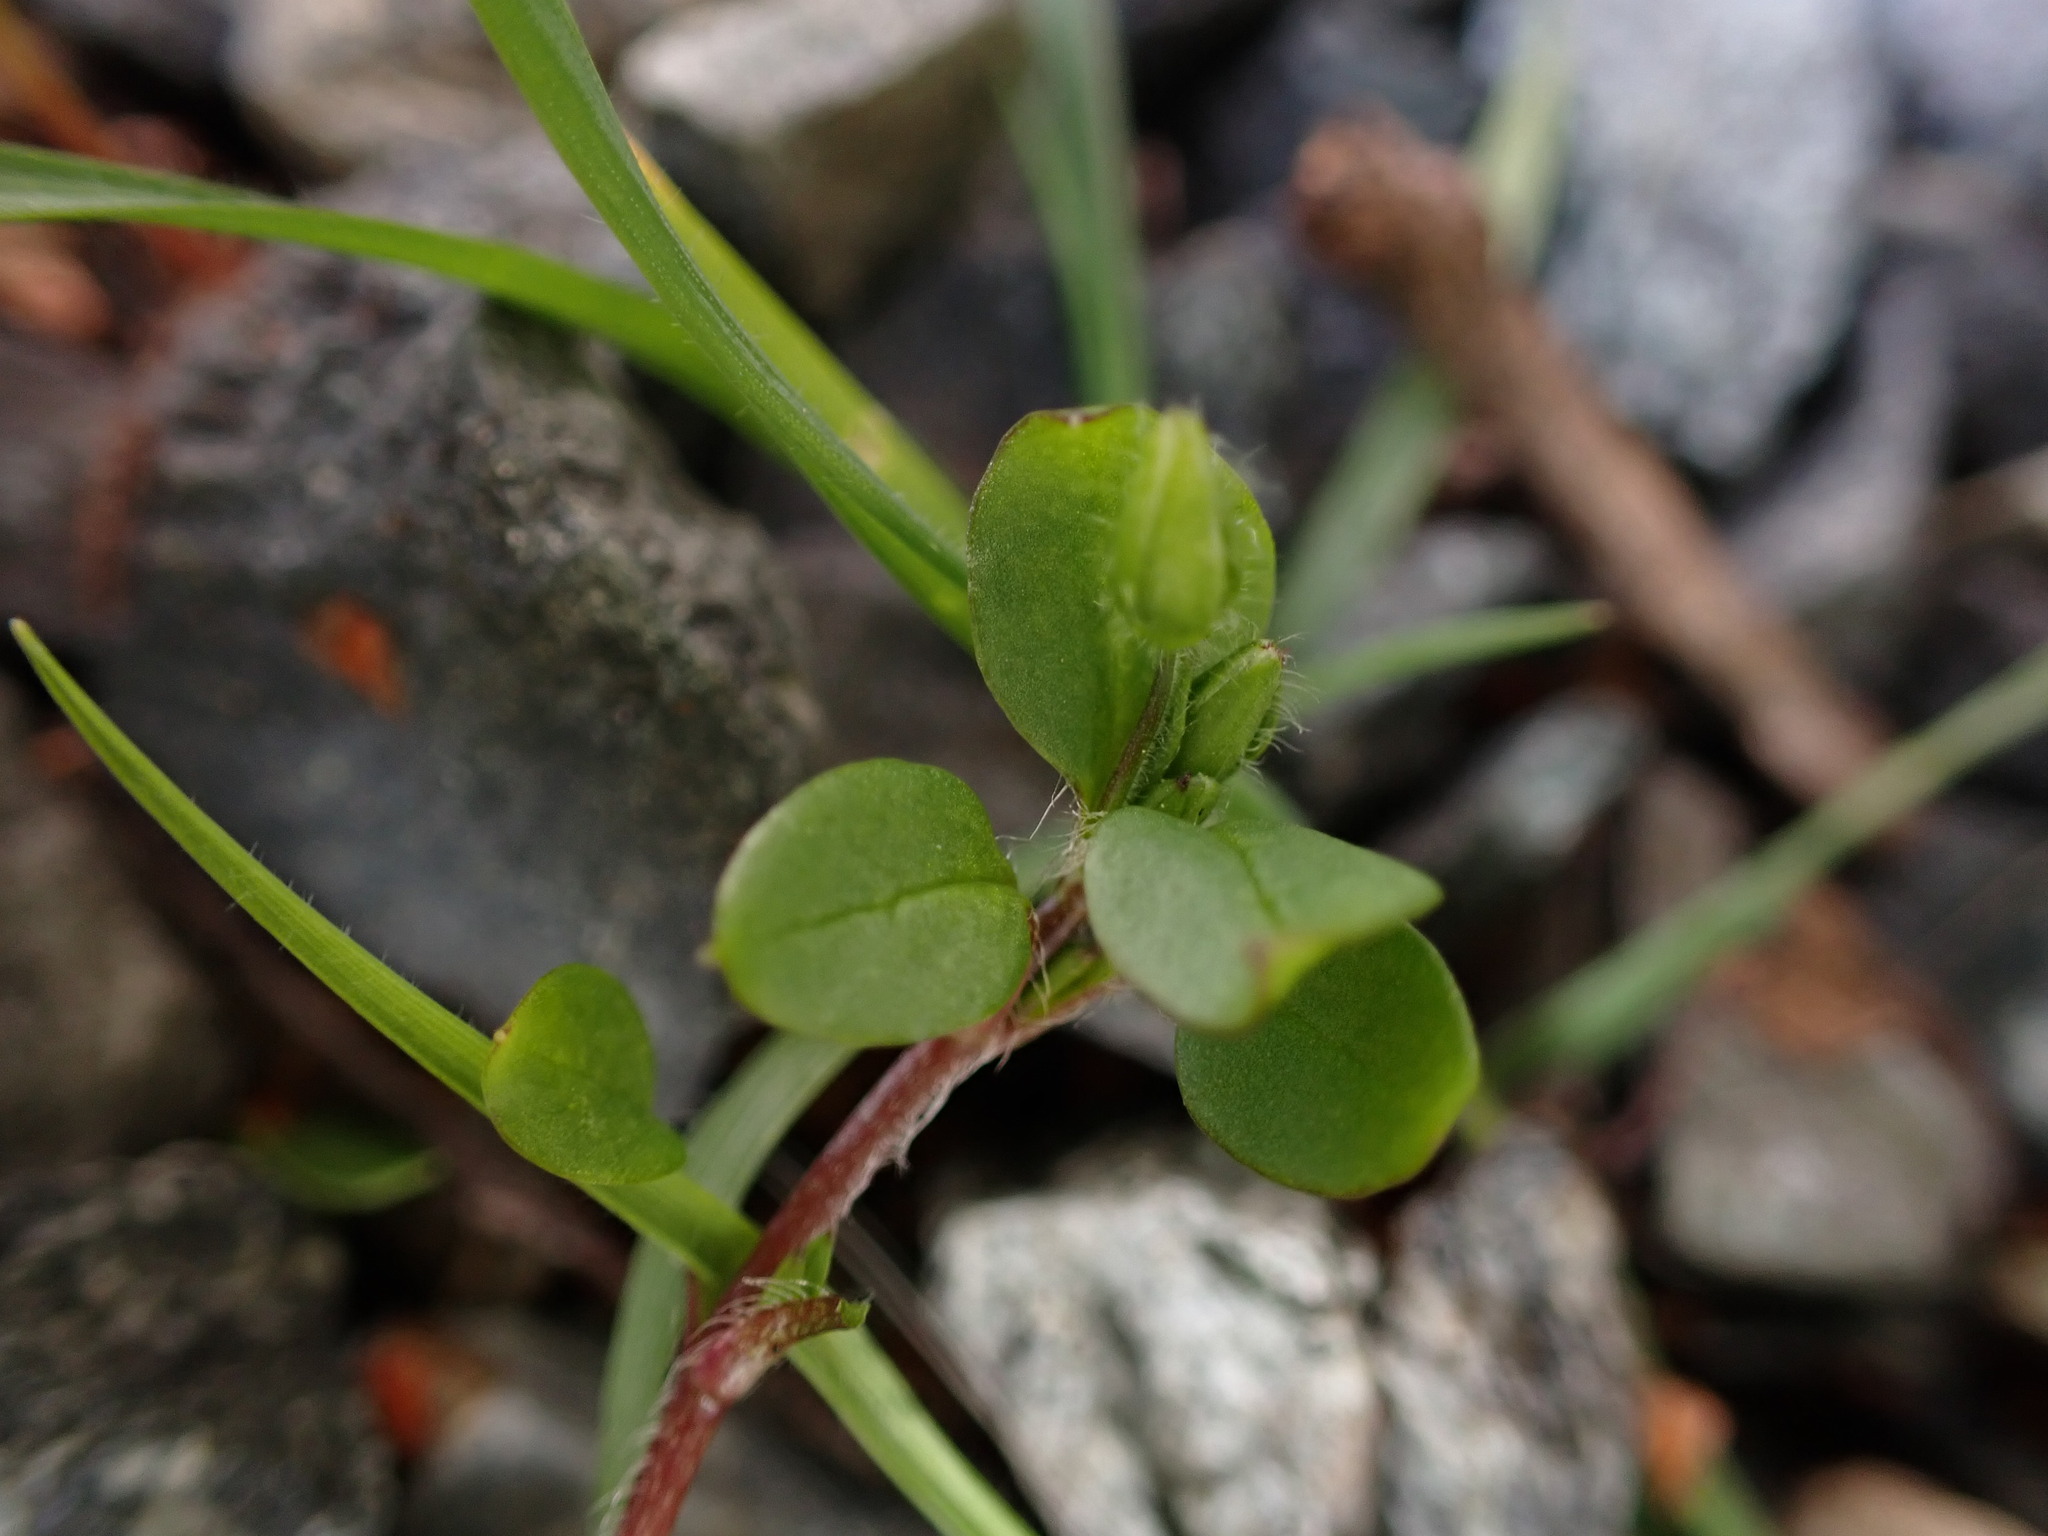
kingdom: Plantae
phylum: Tracheophyta
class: Magnoliopsida
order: Caryophyllales
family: Caryophyllaceae
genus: Stellaria
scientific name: Stellaria media
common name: Common chickweed
